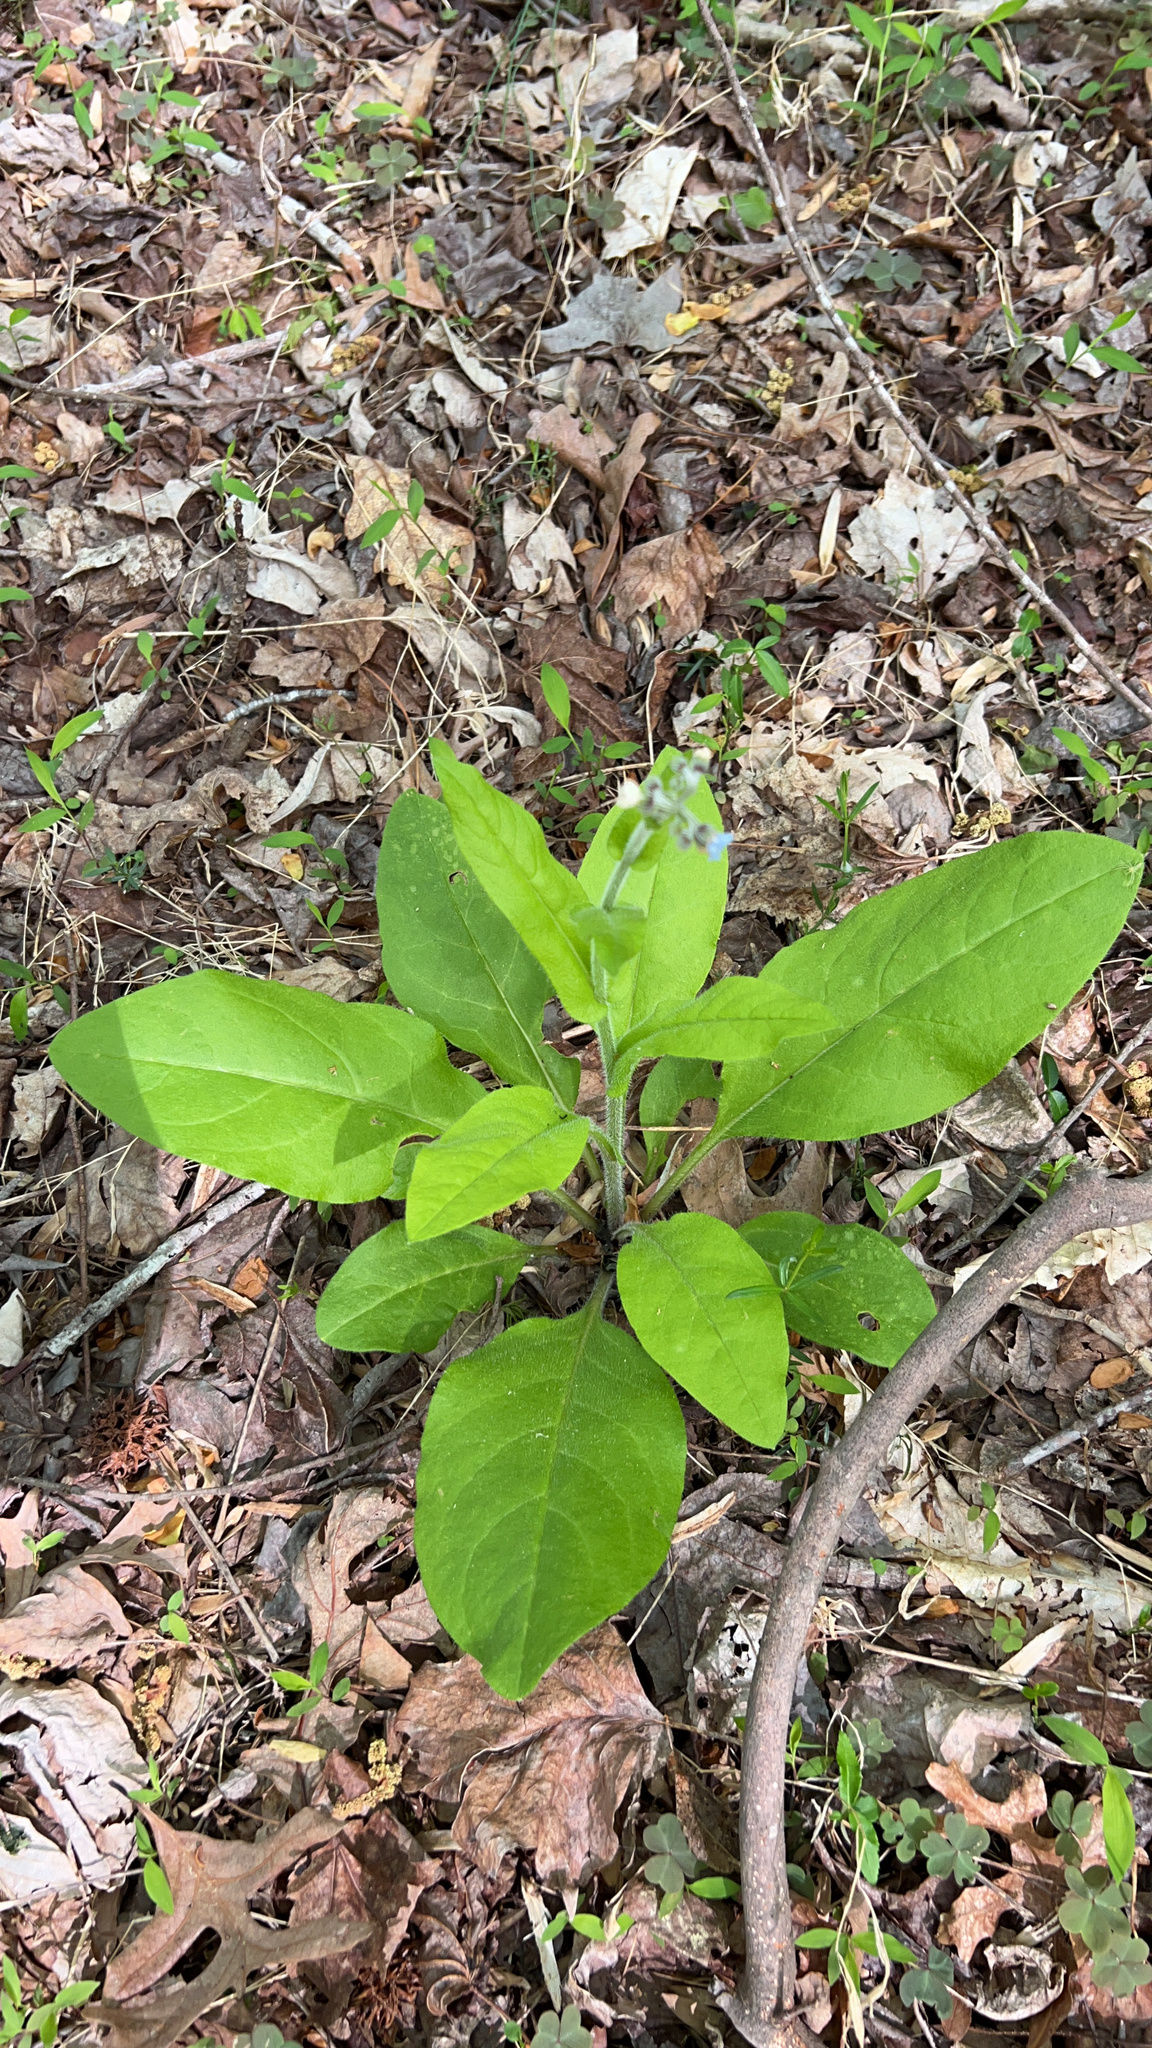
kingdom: Plantae
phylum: Tracheophyta
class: Magnoliopsida
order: Boraginales
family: Boraginaceae
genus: Andersonglossum
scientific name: Andersonglossum virginianum
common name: Wild comfrey
